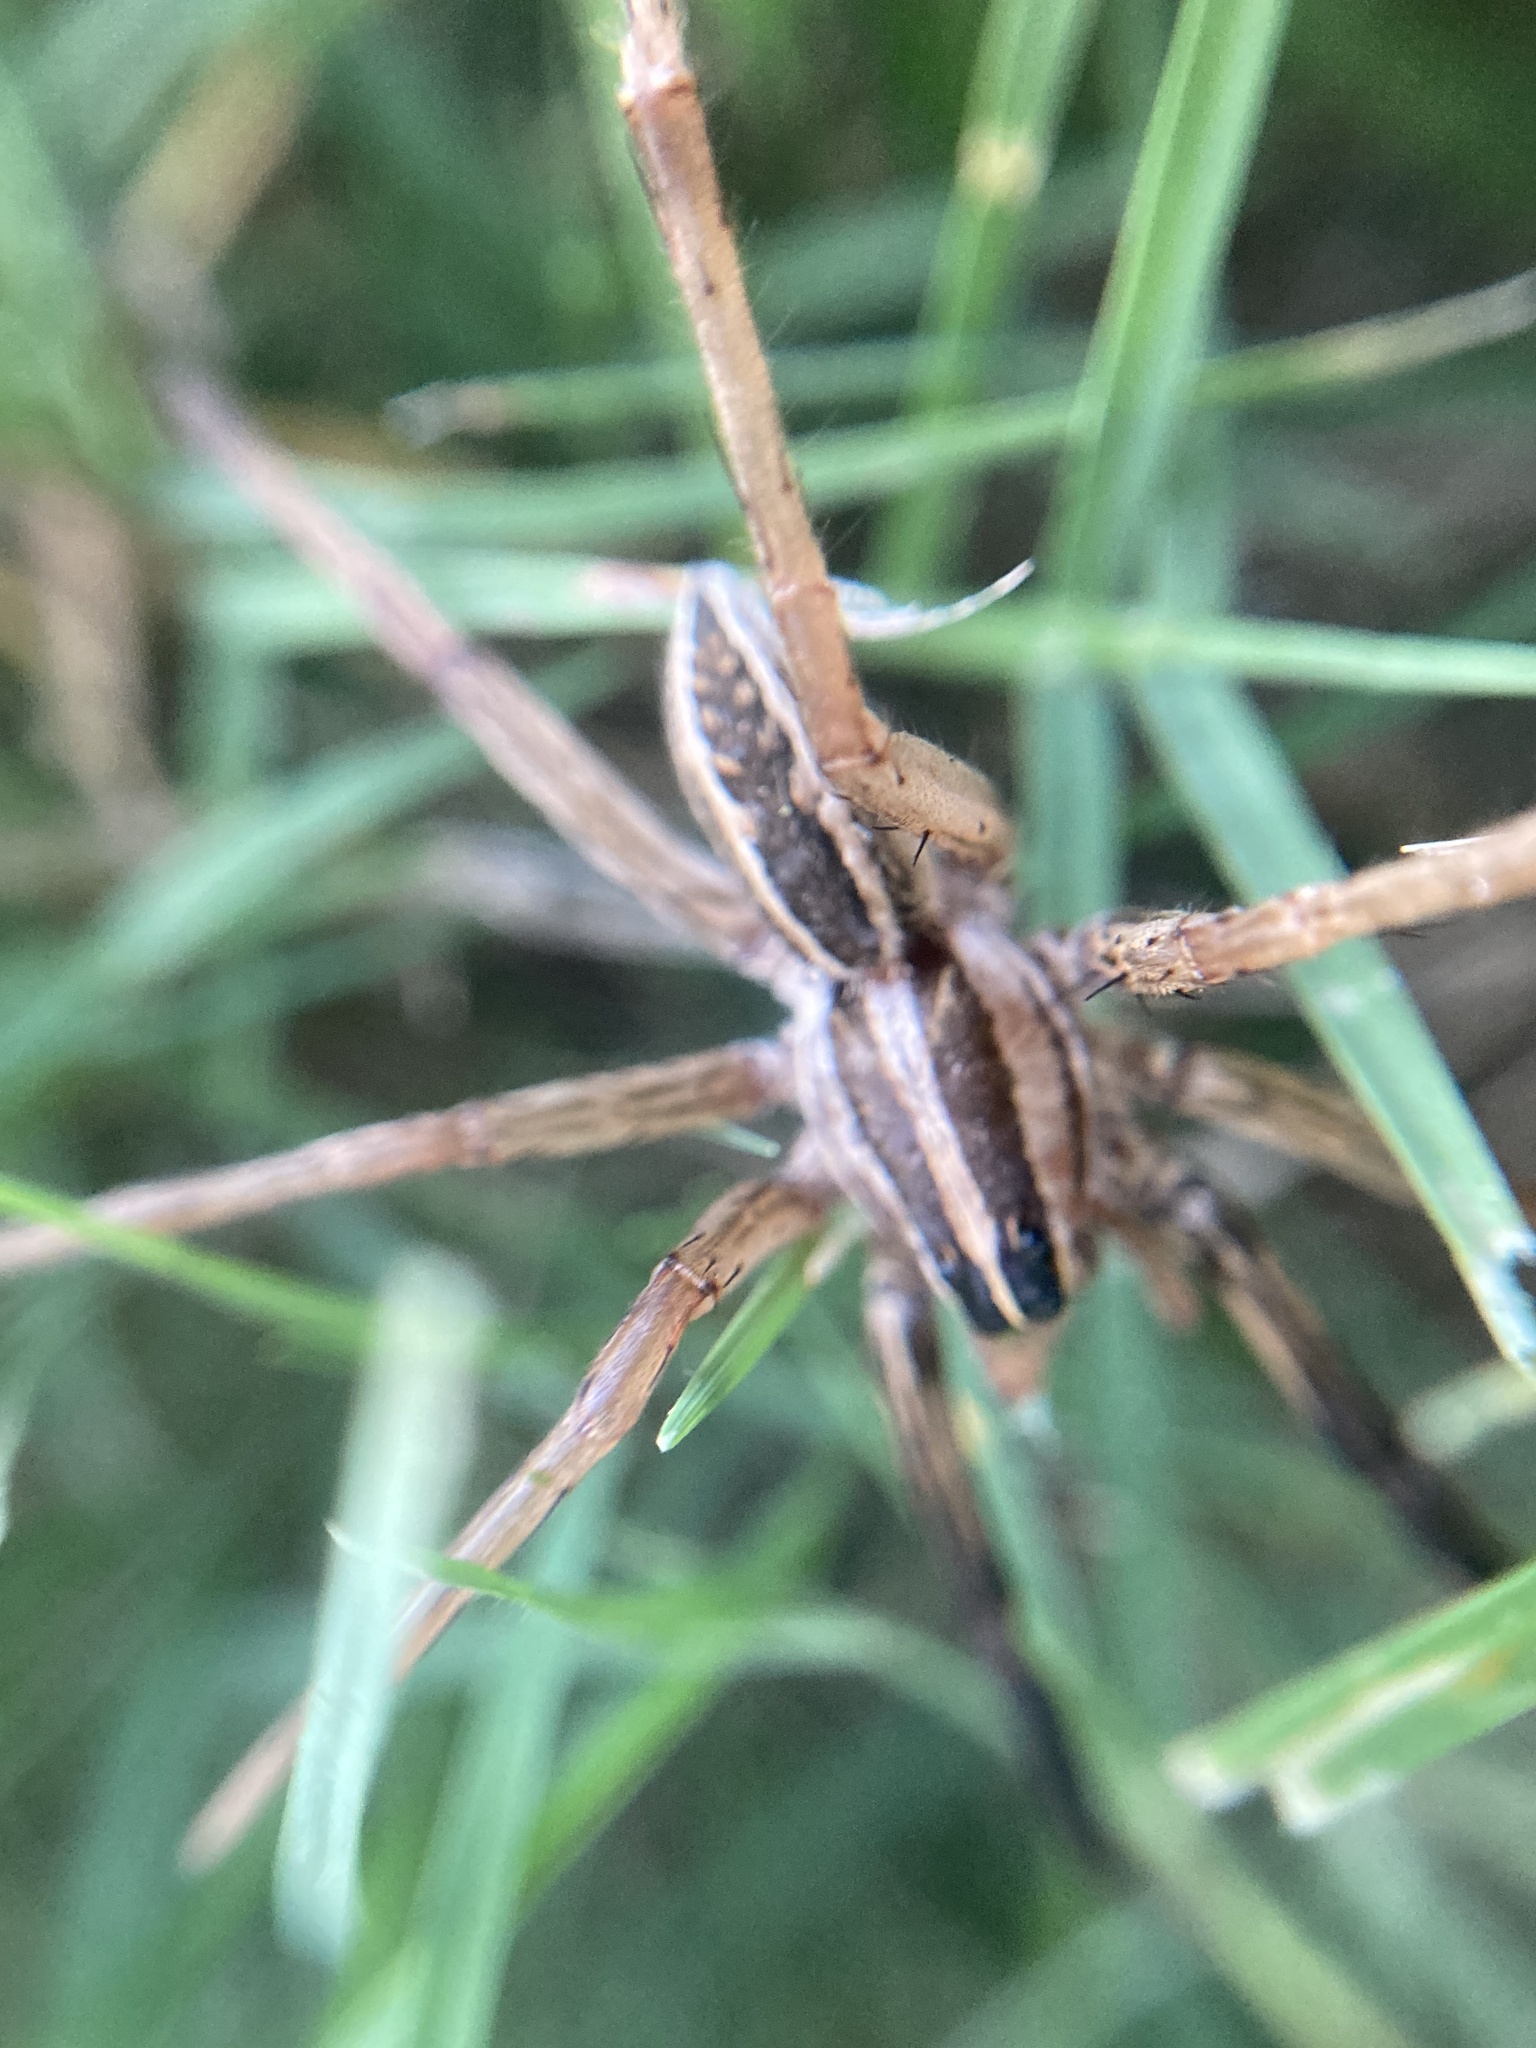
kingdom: Animalia
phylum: Arthropoda
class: Arachnida
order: Araneae
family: Lycosidae
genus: Rabidosa
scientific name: Rabidosa rabida
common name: Rabid wolf spider
